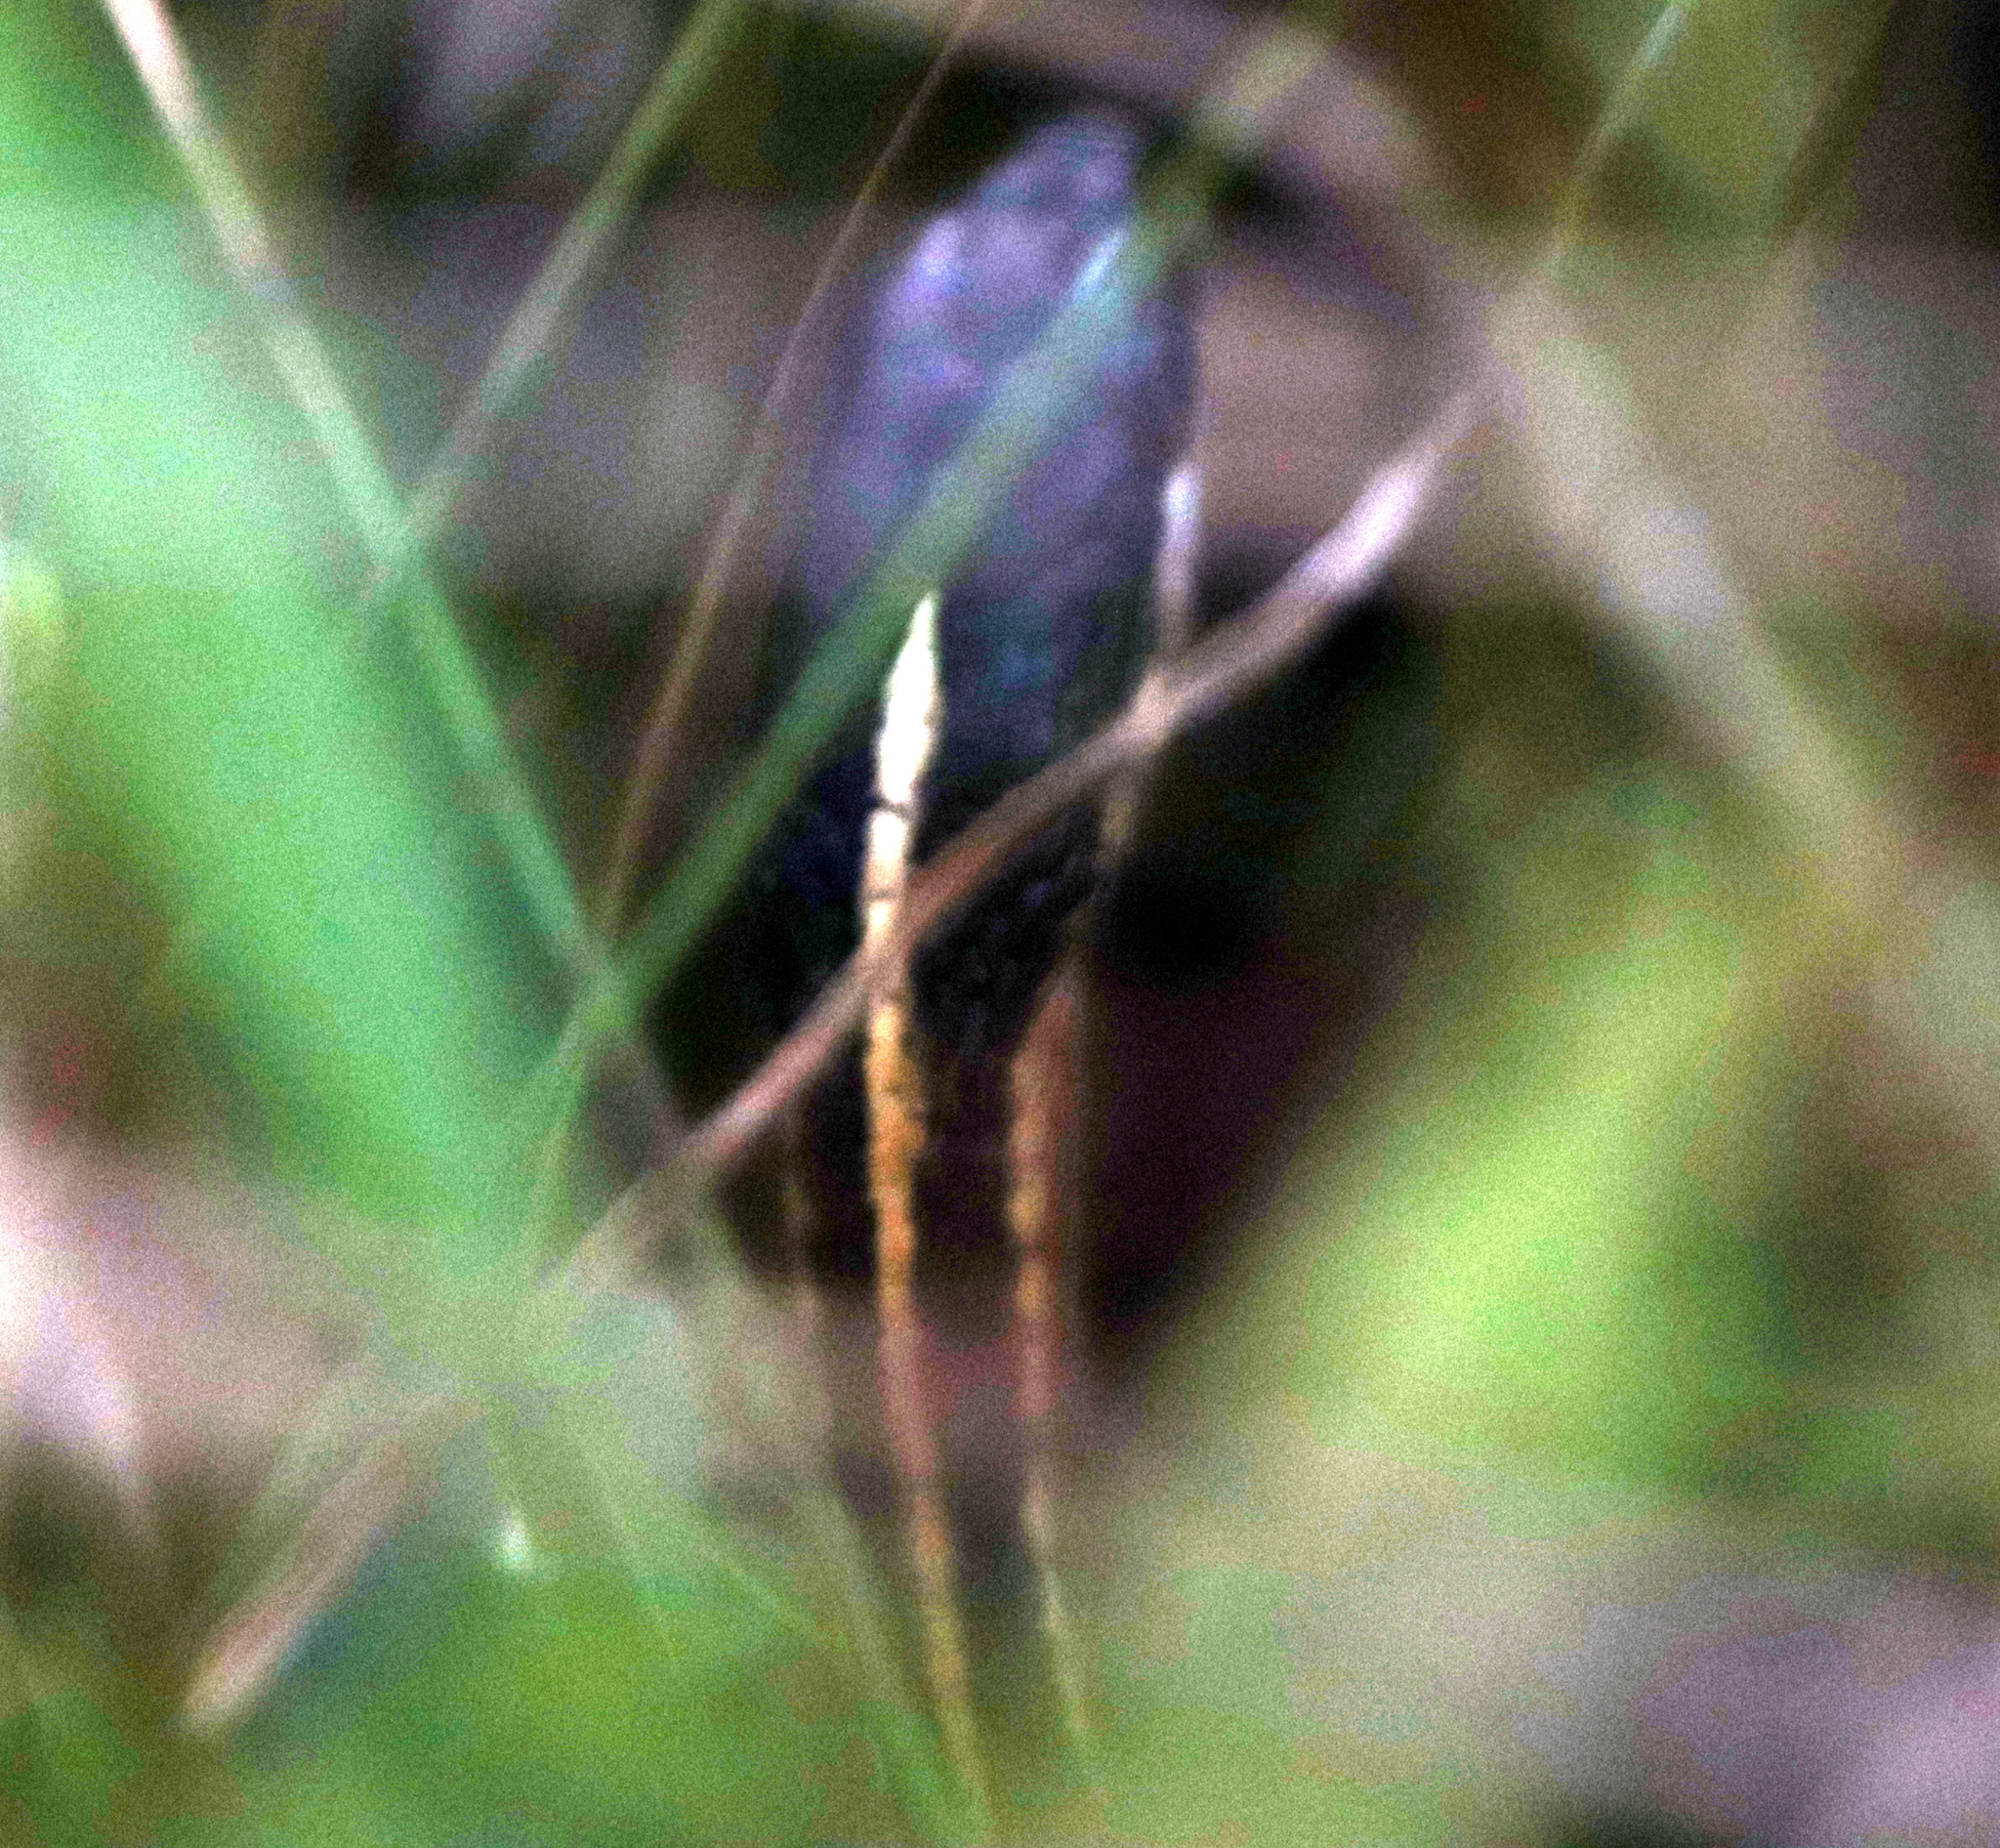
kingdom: Animalia
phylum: Chordata
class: Squamata
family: Colubridae
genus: Thamnophis
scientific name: Thamnophis saurita
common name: Eastern ribbonsnake
